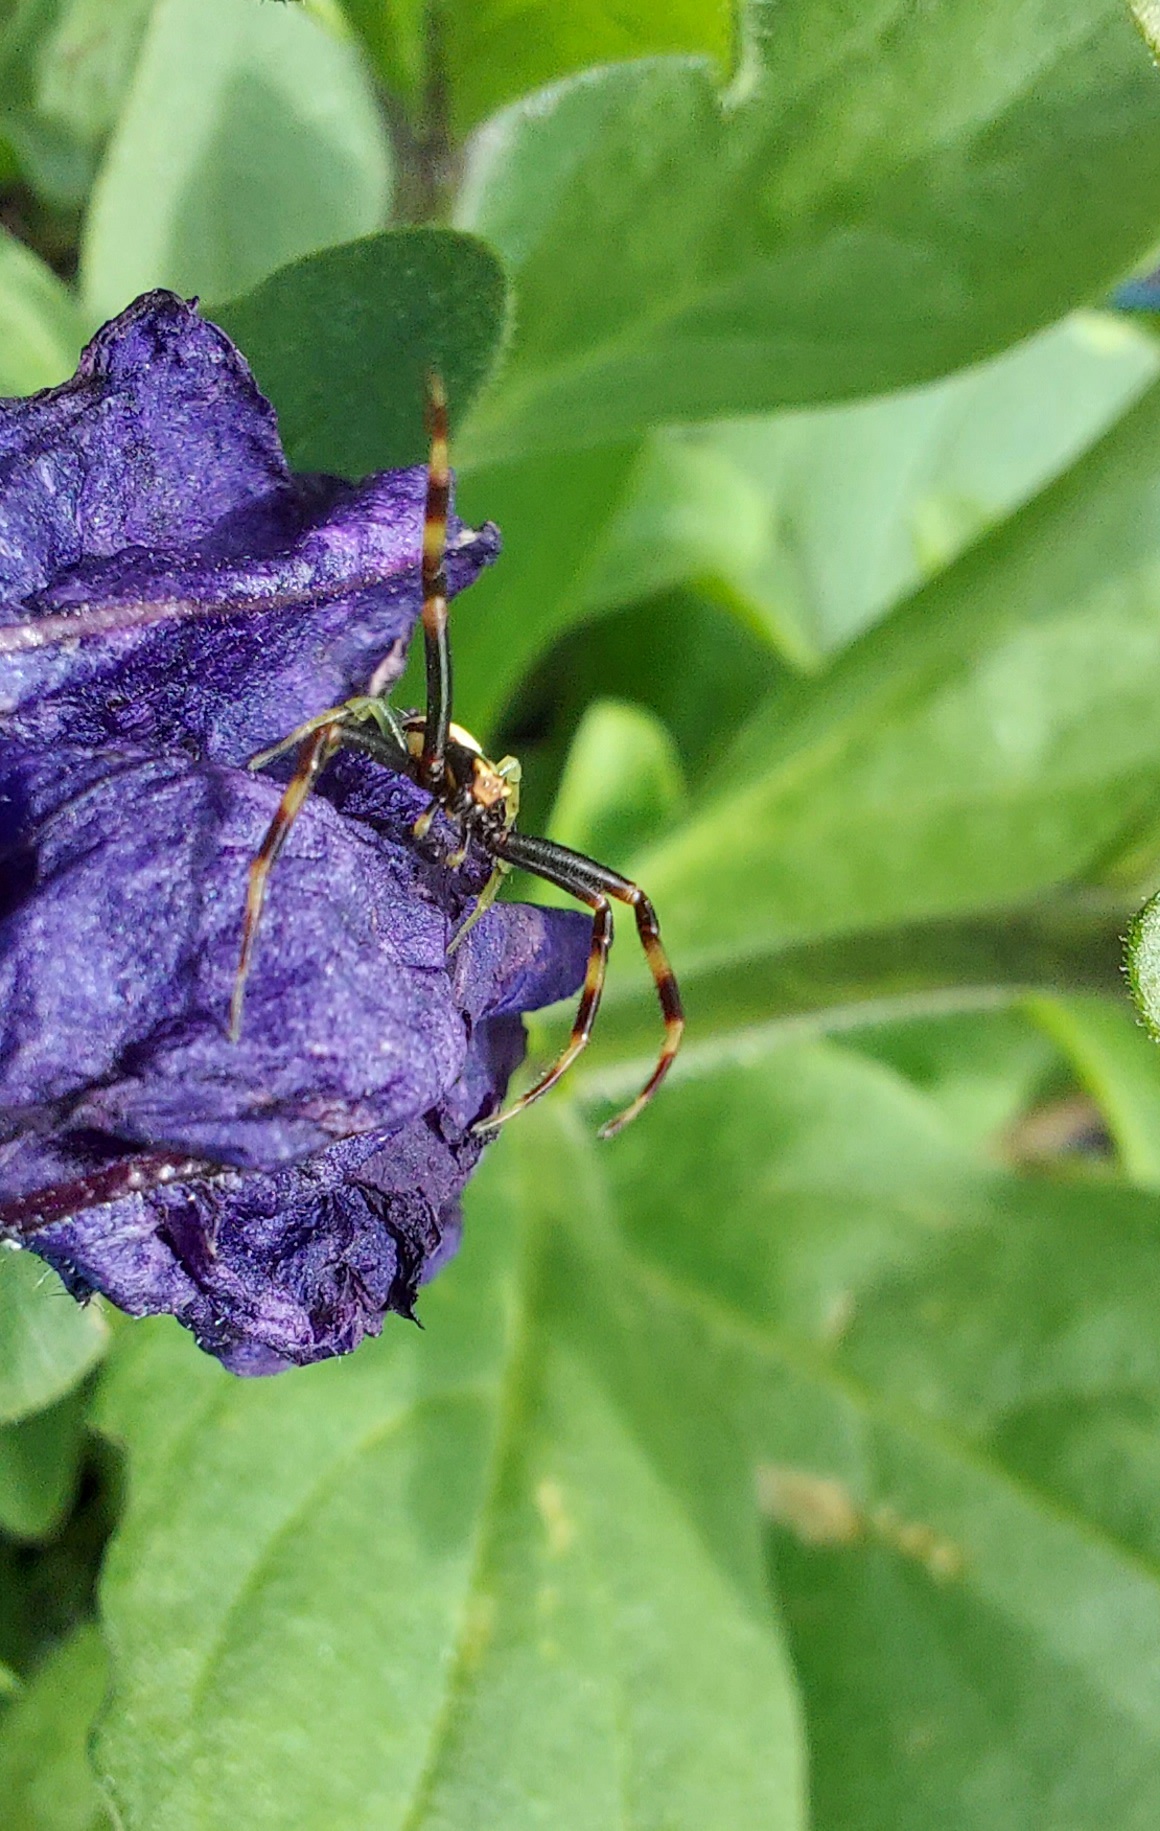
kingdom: Animalia
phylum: Arthropoda
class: Arachnida
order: Araneae
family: Thomisidae
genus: Misumena
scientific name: Misumena vatia
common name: Goldenrod crab spider
